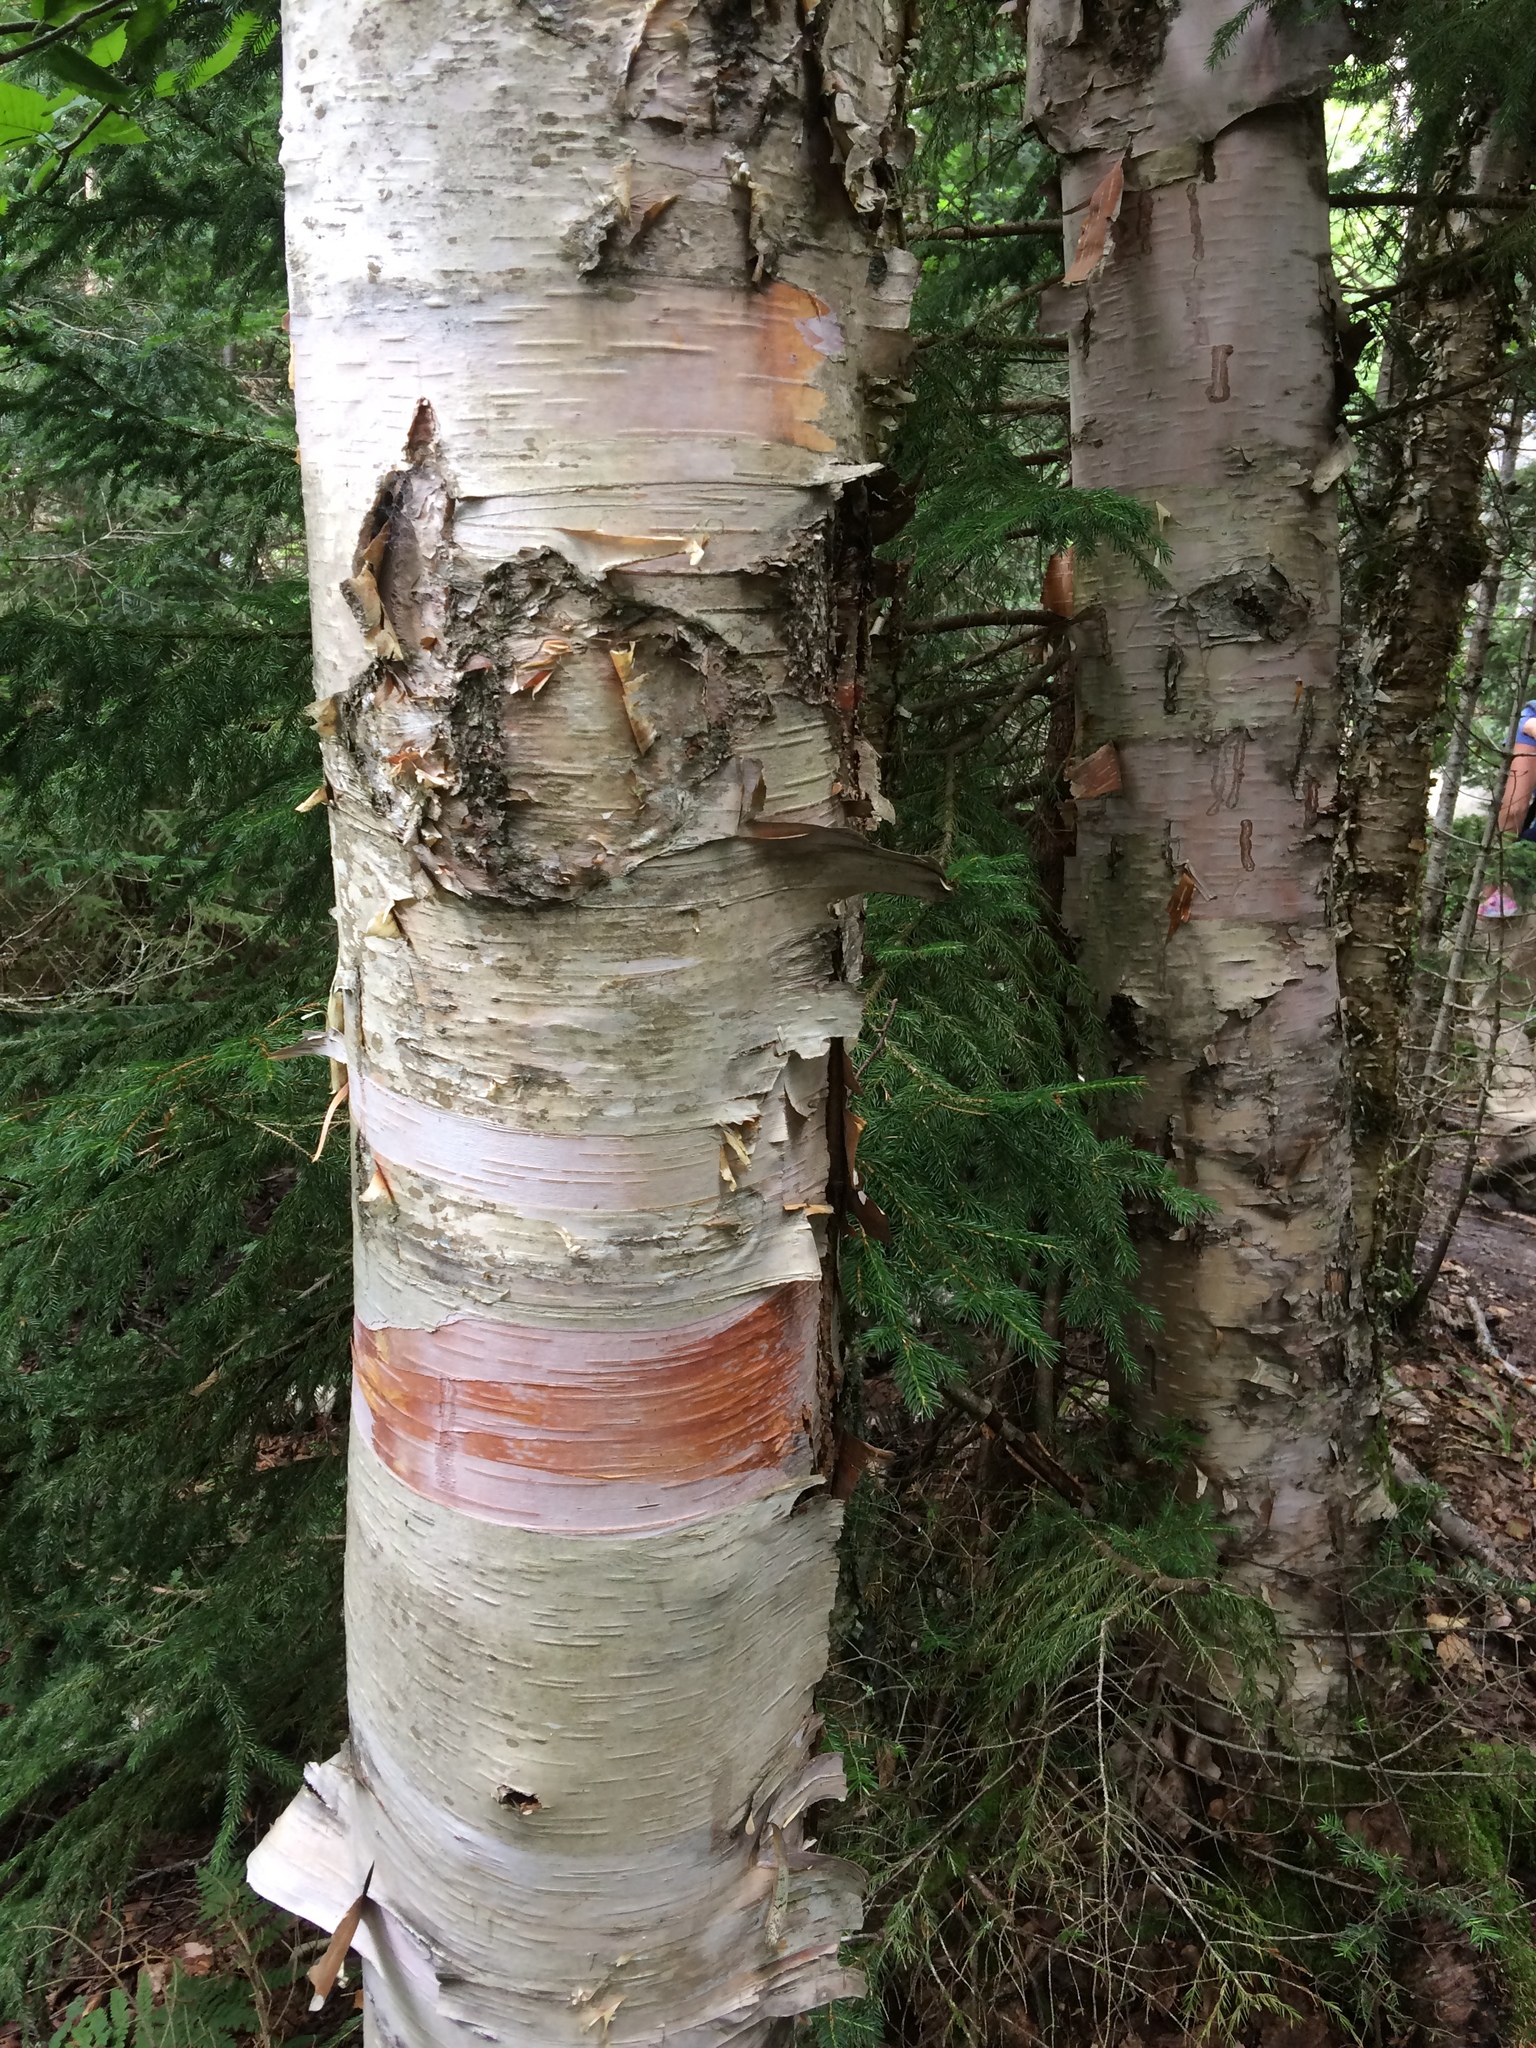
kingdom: Plantae
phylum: Tracheophyta
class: Magnoliopsida
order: Fagales
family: Betulaceae
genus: Betula
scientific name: Betula cordifolia
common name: Mountain white birch
